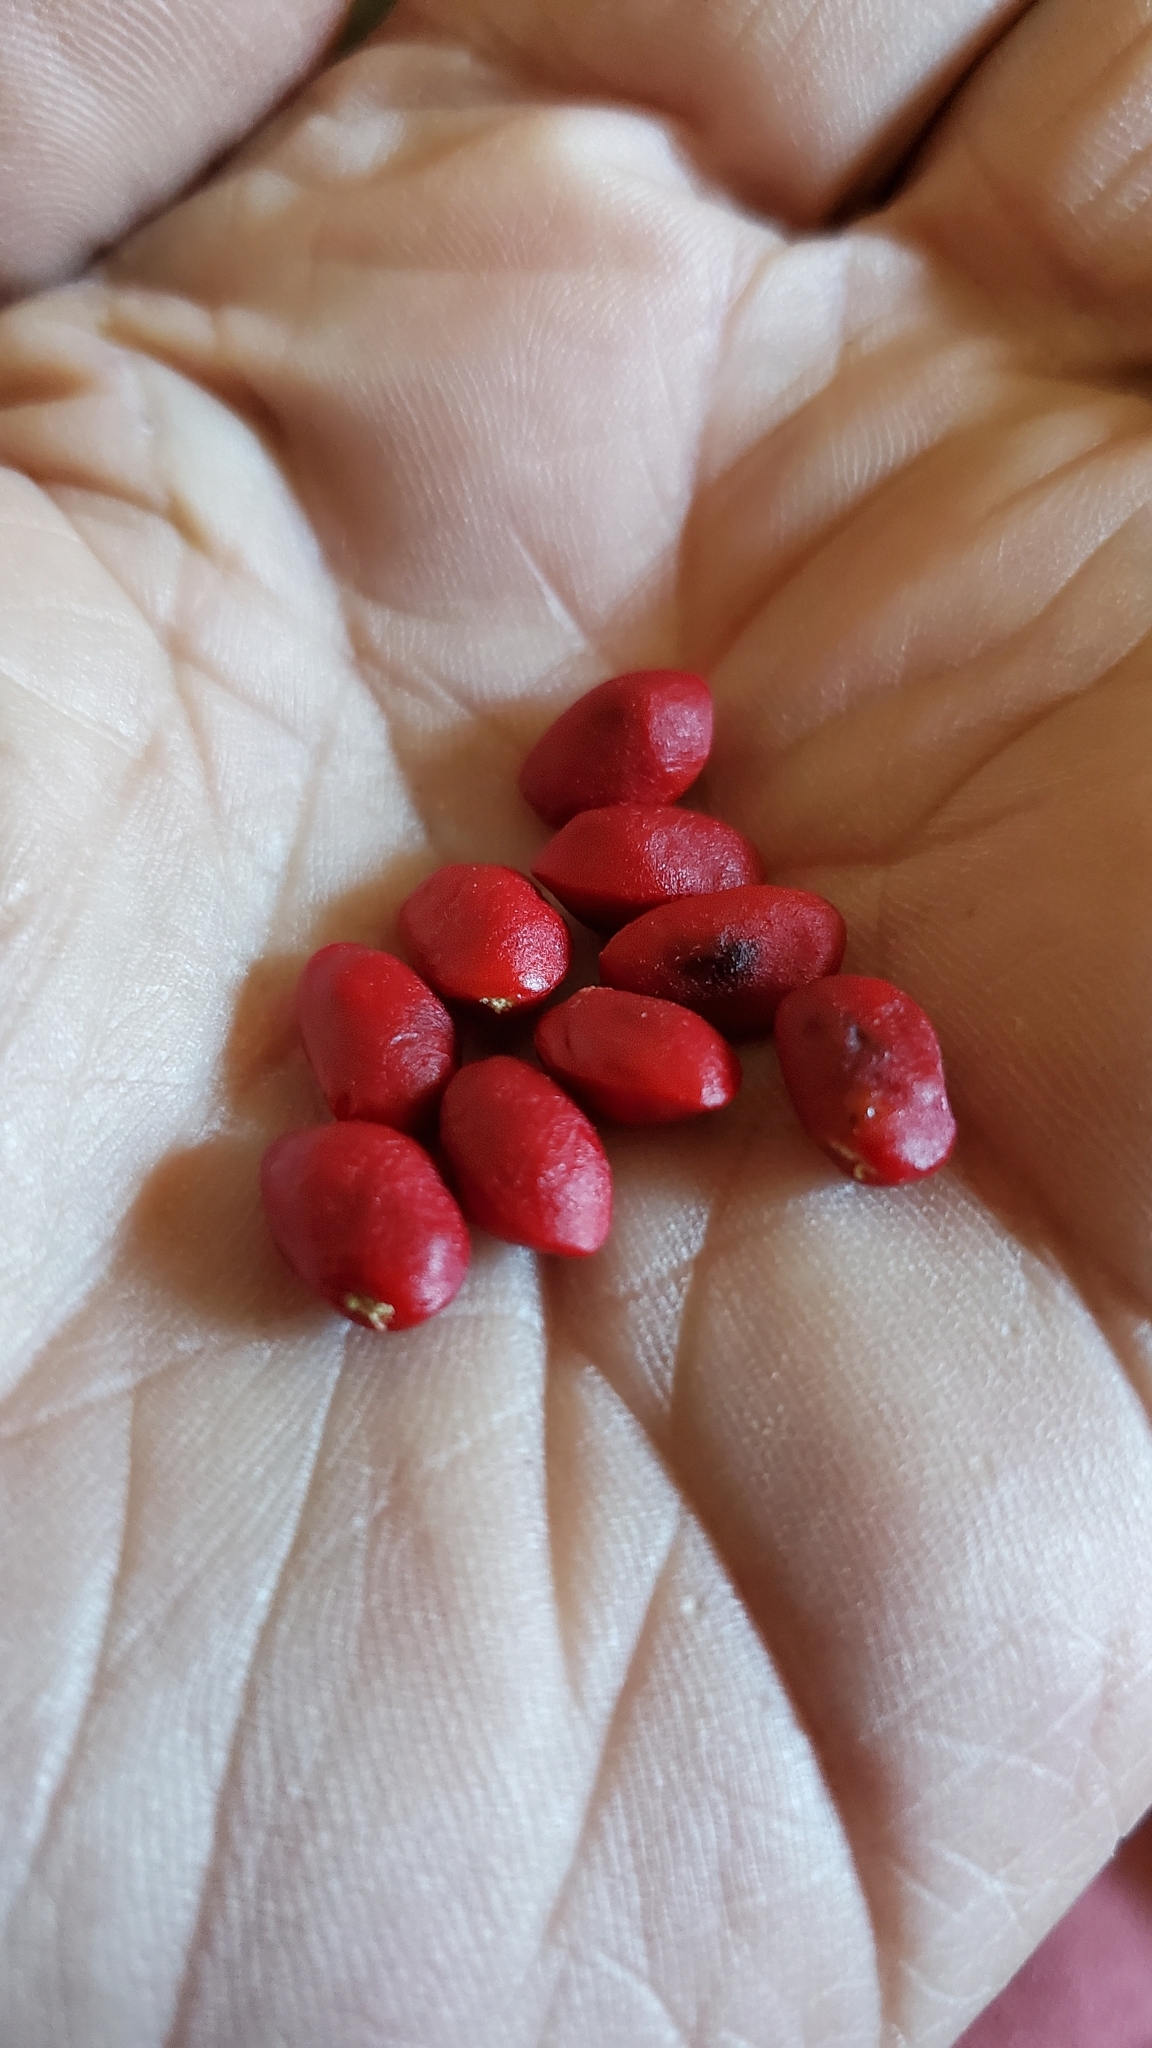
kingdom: Plantae
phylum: Tracheophyta
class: Magnoliopsida
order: Zygophyllales
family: Zygophyllaceae
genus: Porlieria
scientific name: Porlieria angustifolia
